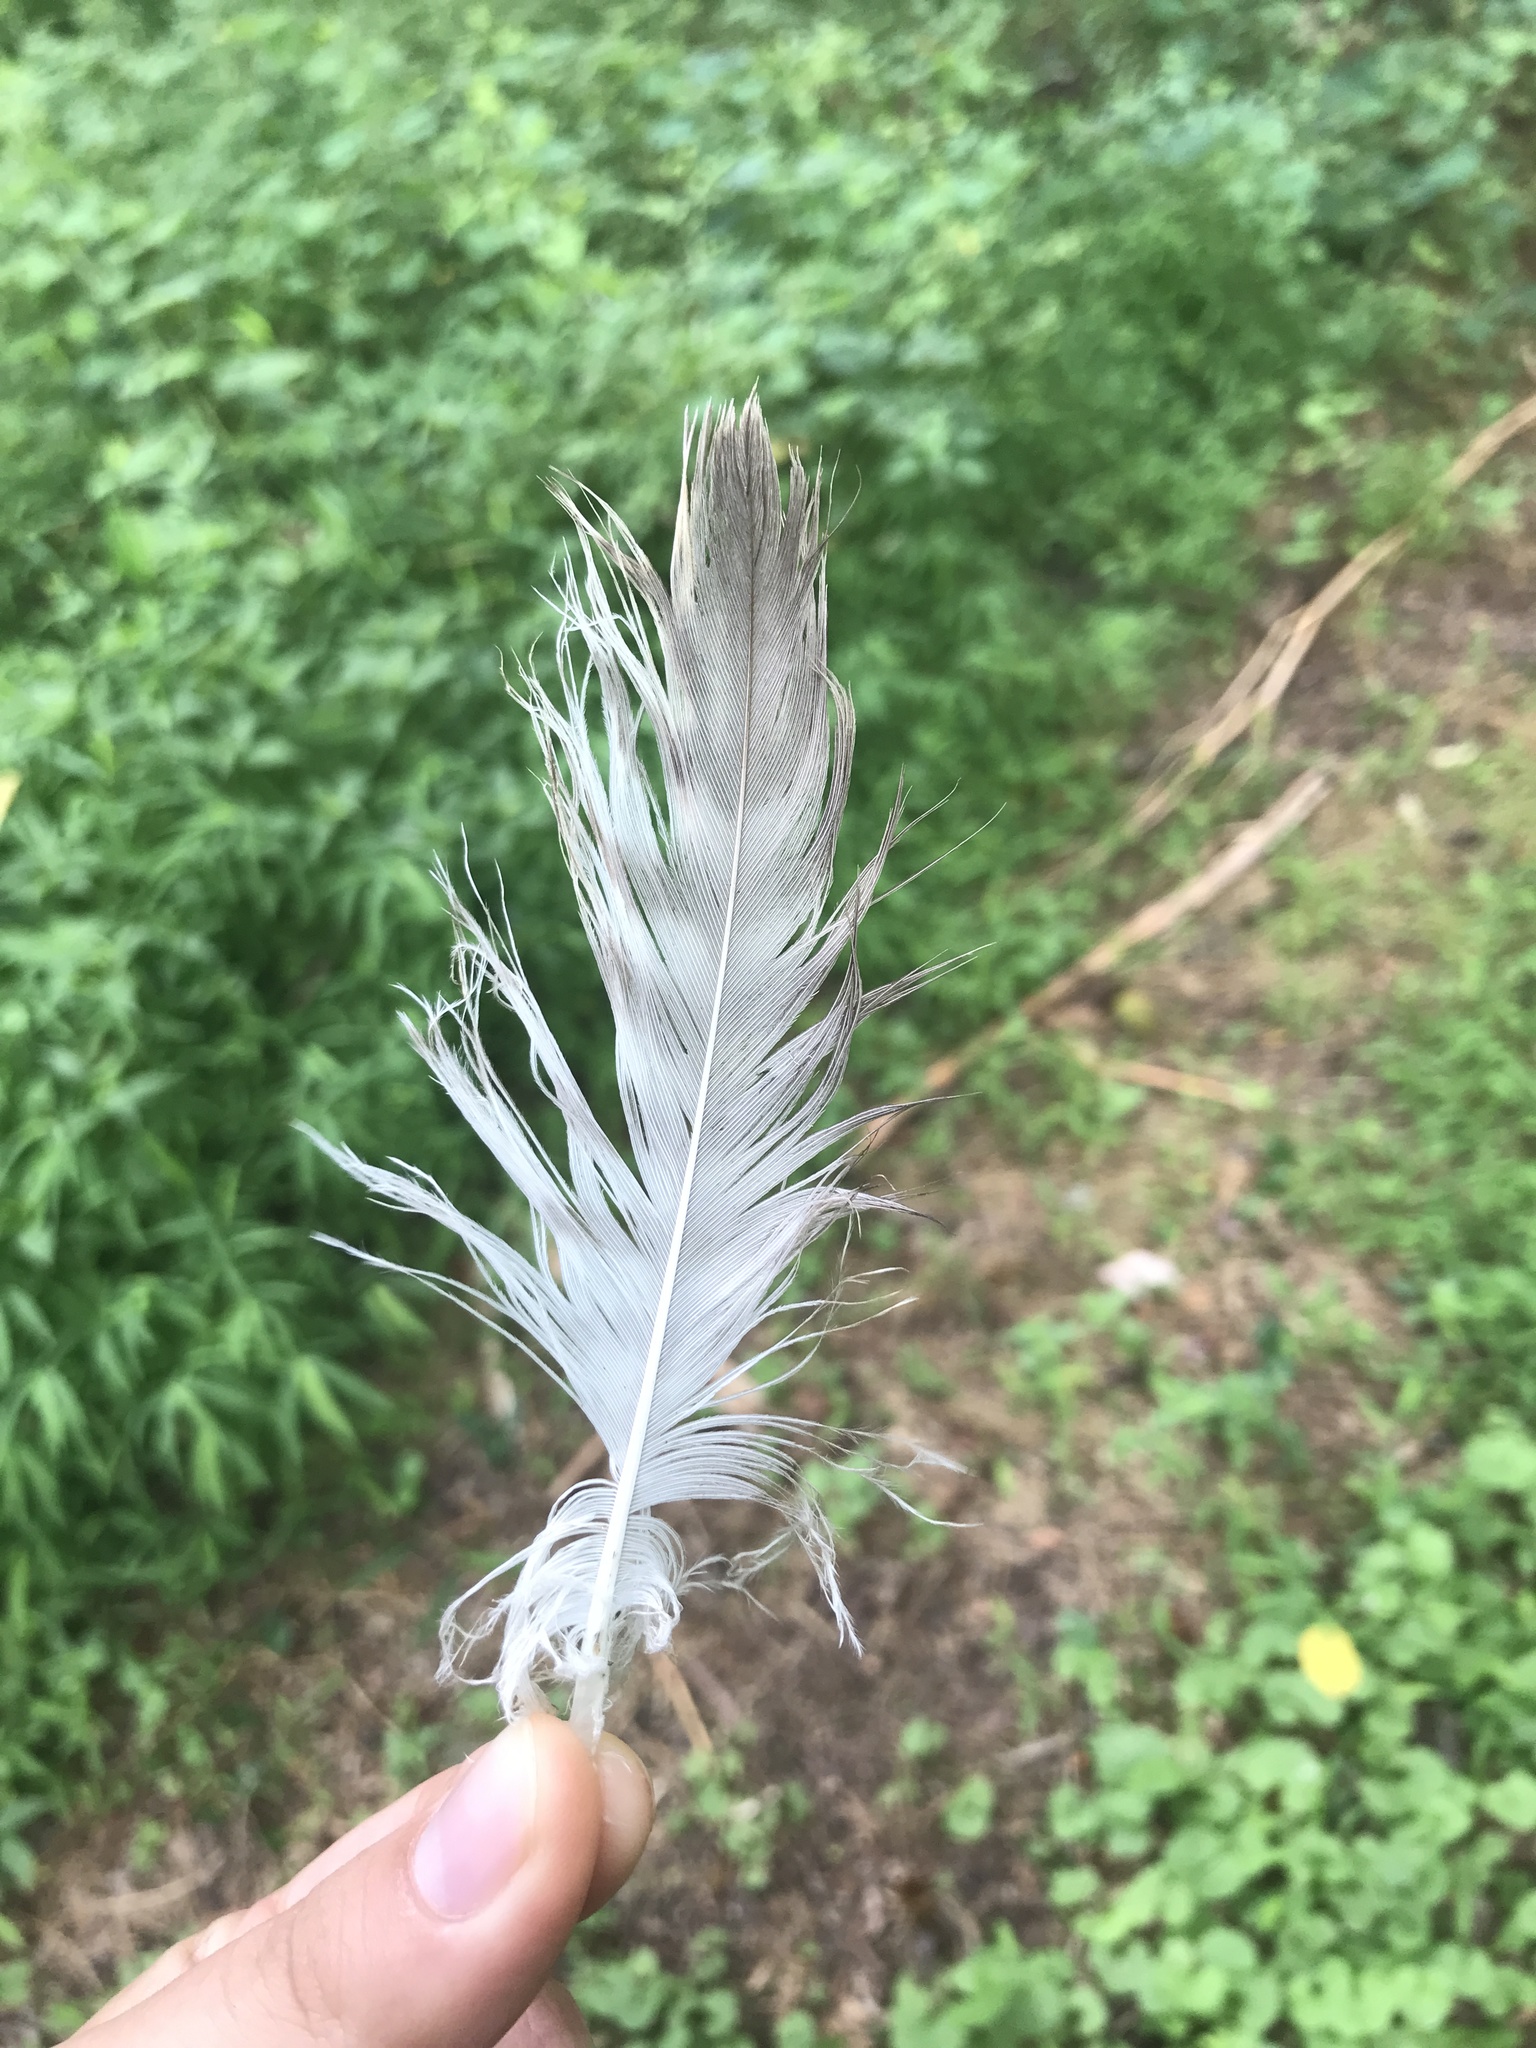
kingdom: Animalia
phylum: Chordata
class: Aves
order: Accipitriformes
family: Accipitridae
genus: Buteo
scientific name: Buteo jamaicensis
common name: Red-tailed hawk
